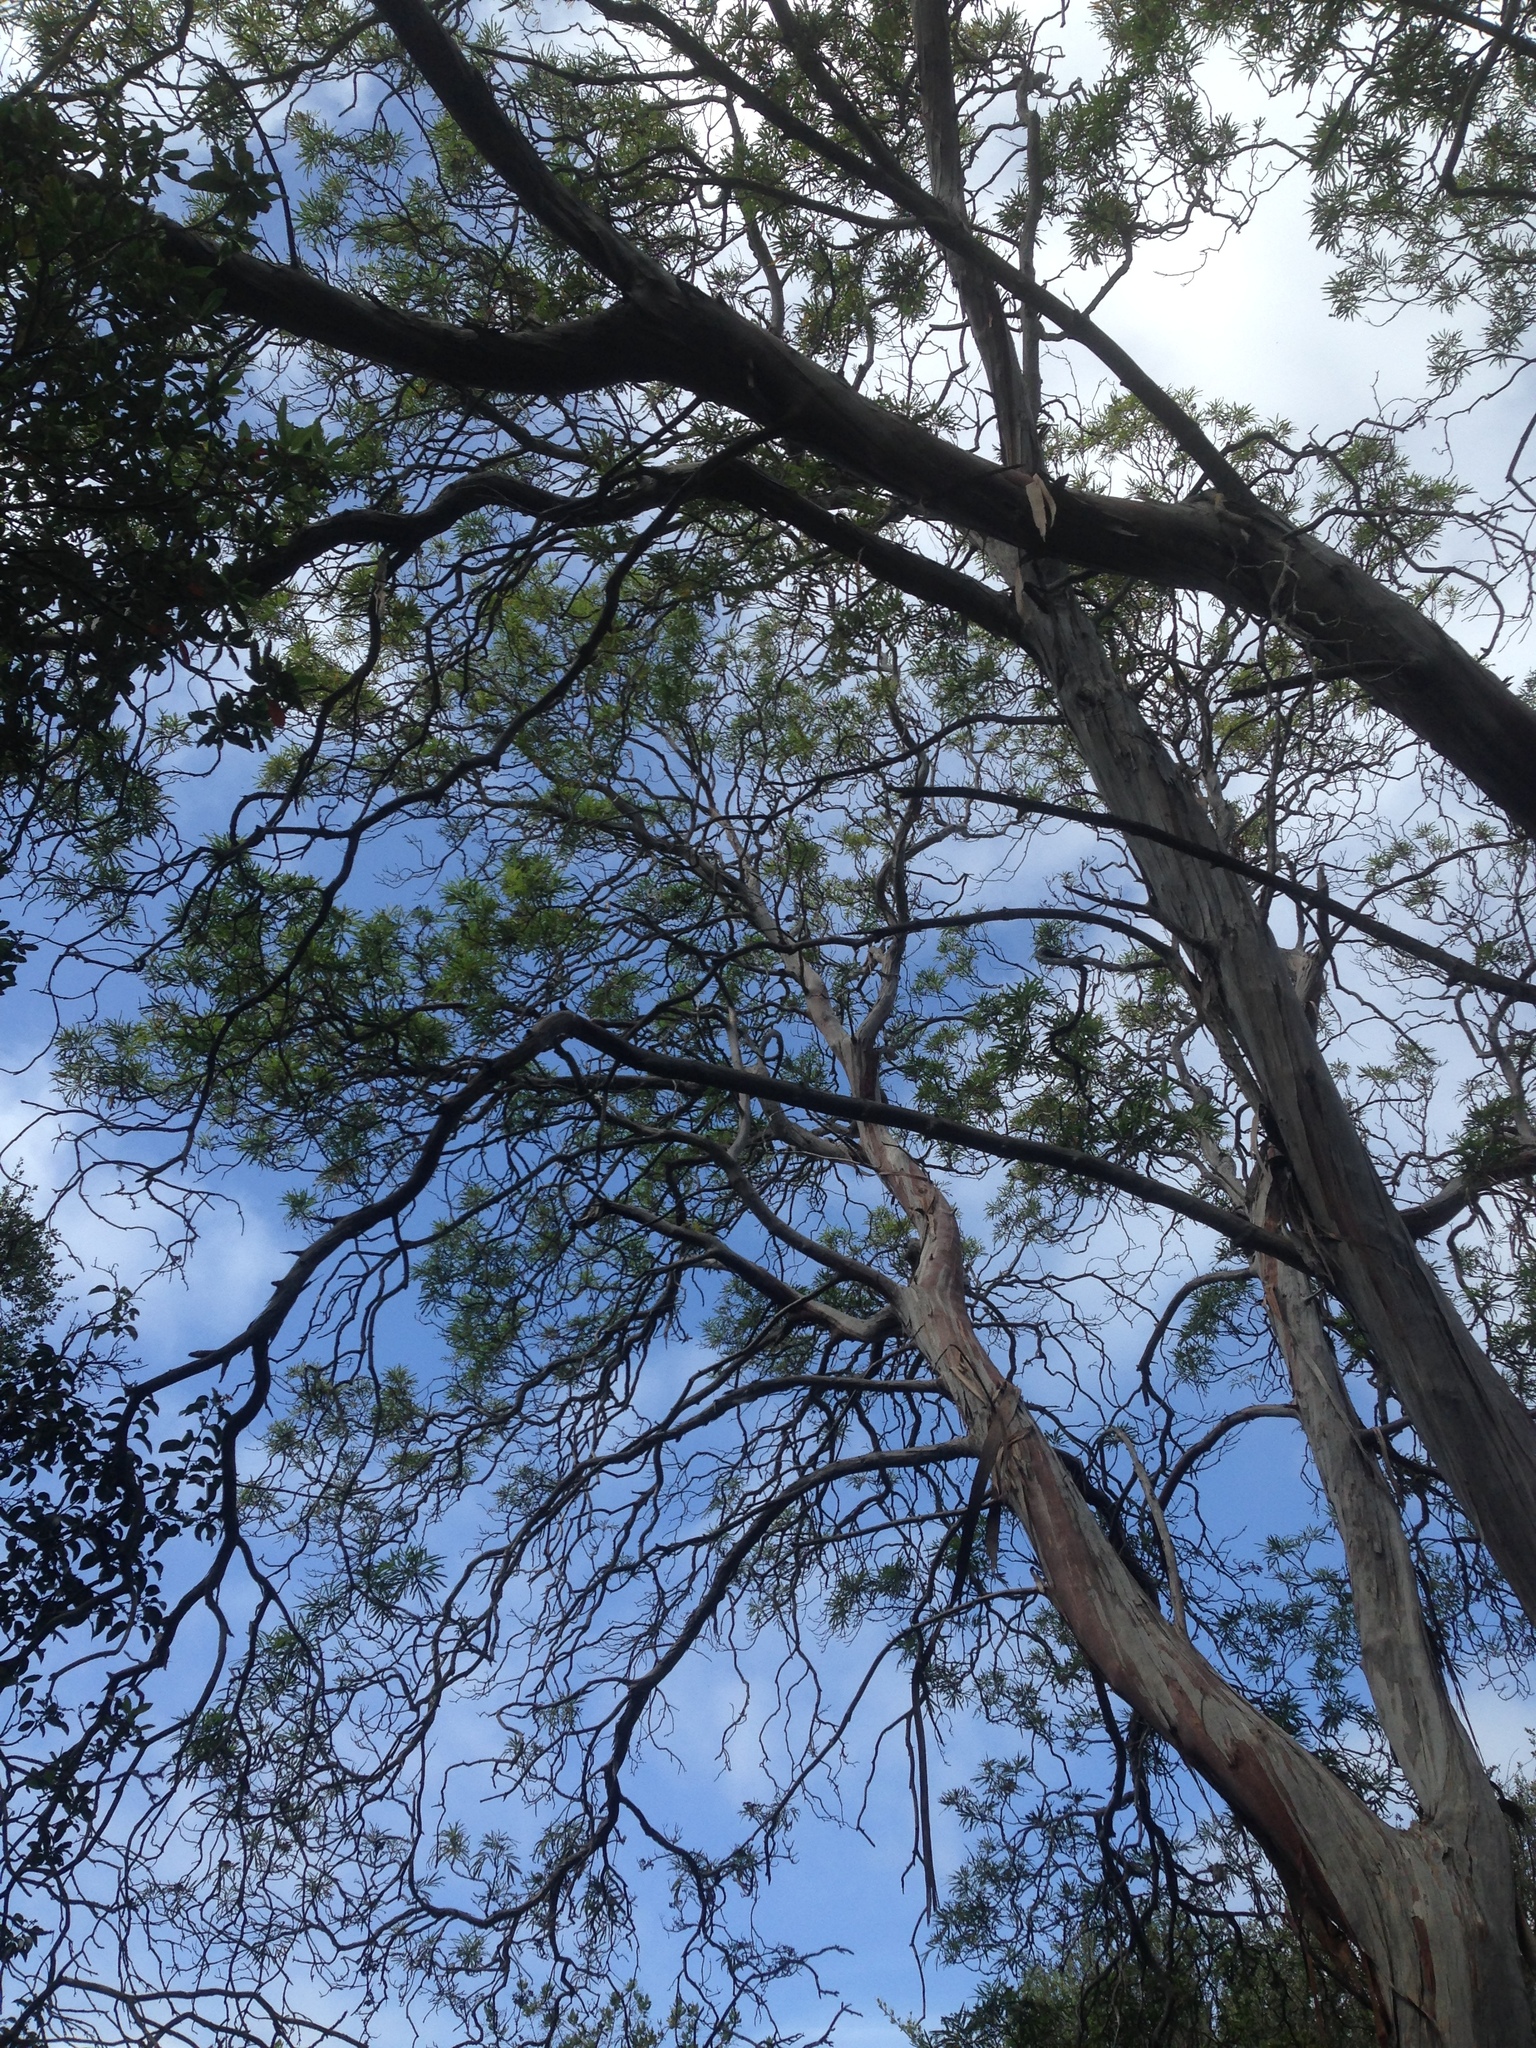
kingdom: Plantae
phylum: Tracheophyta
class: Magnoliopsida
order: Rosales
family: Rosaceae
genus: Lyonothamnus
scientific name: Lyonothamnus floribundus
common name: Catalina ironwood
